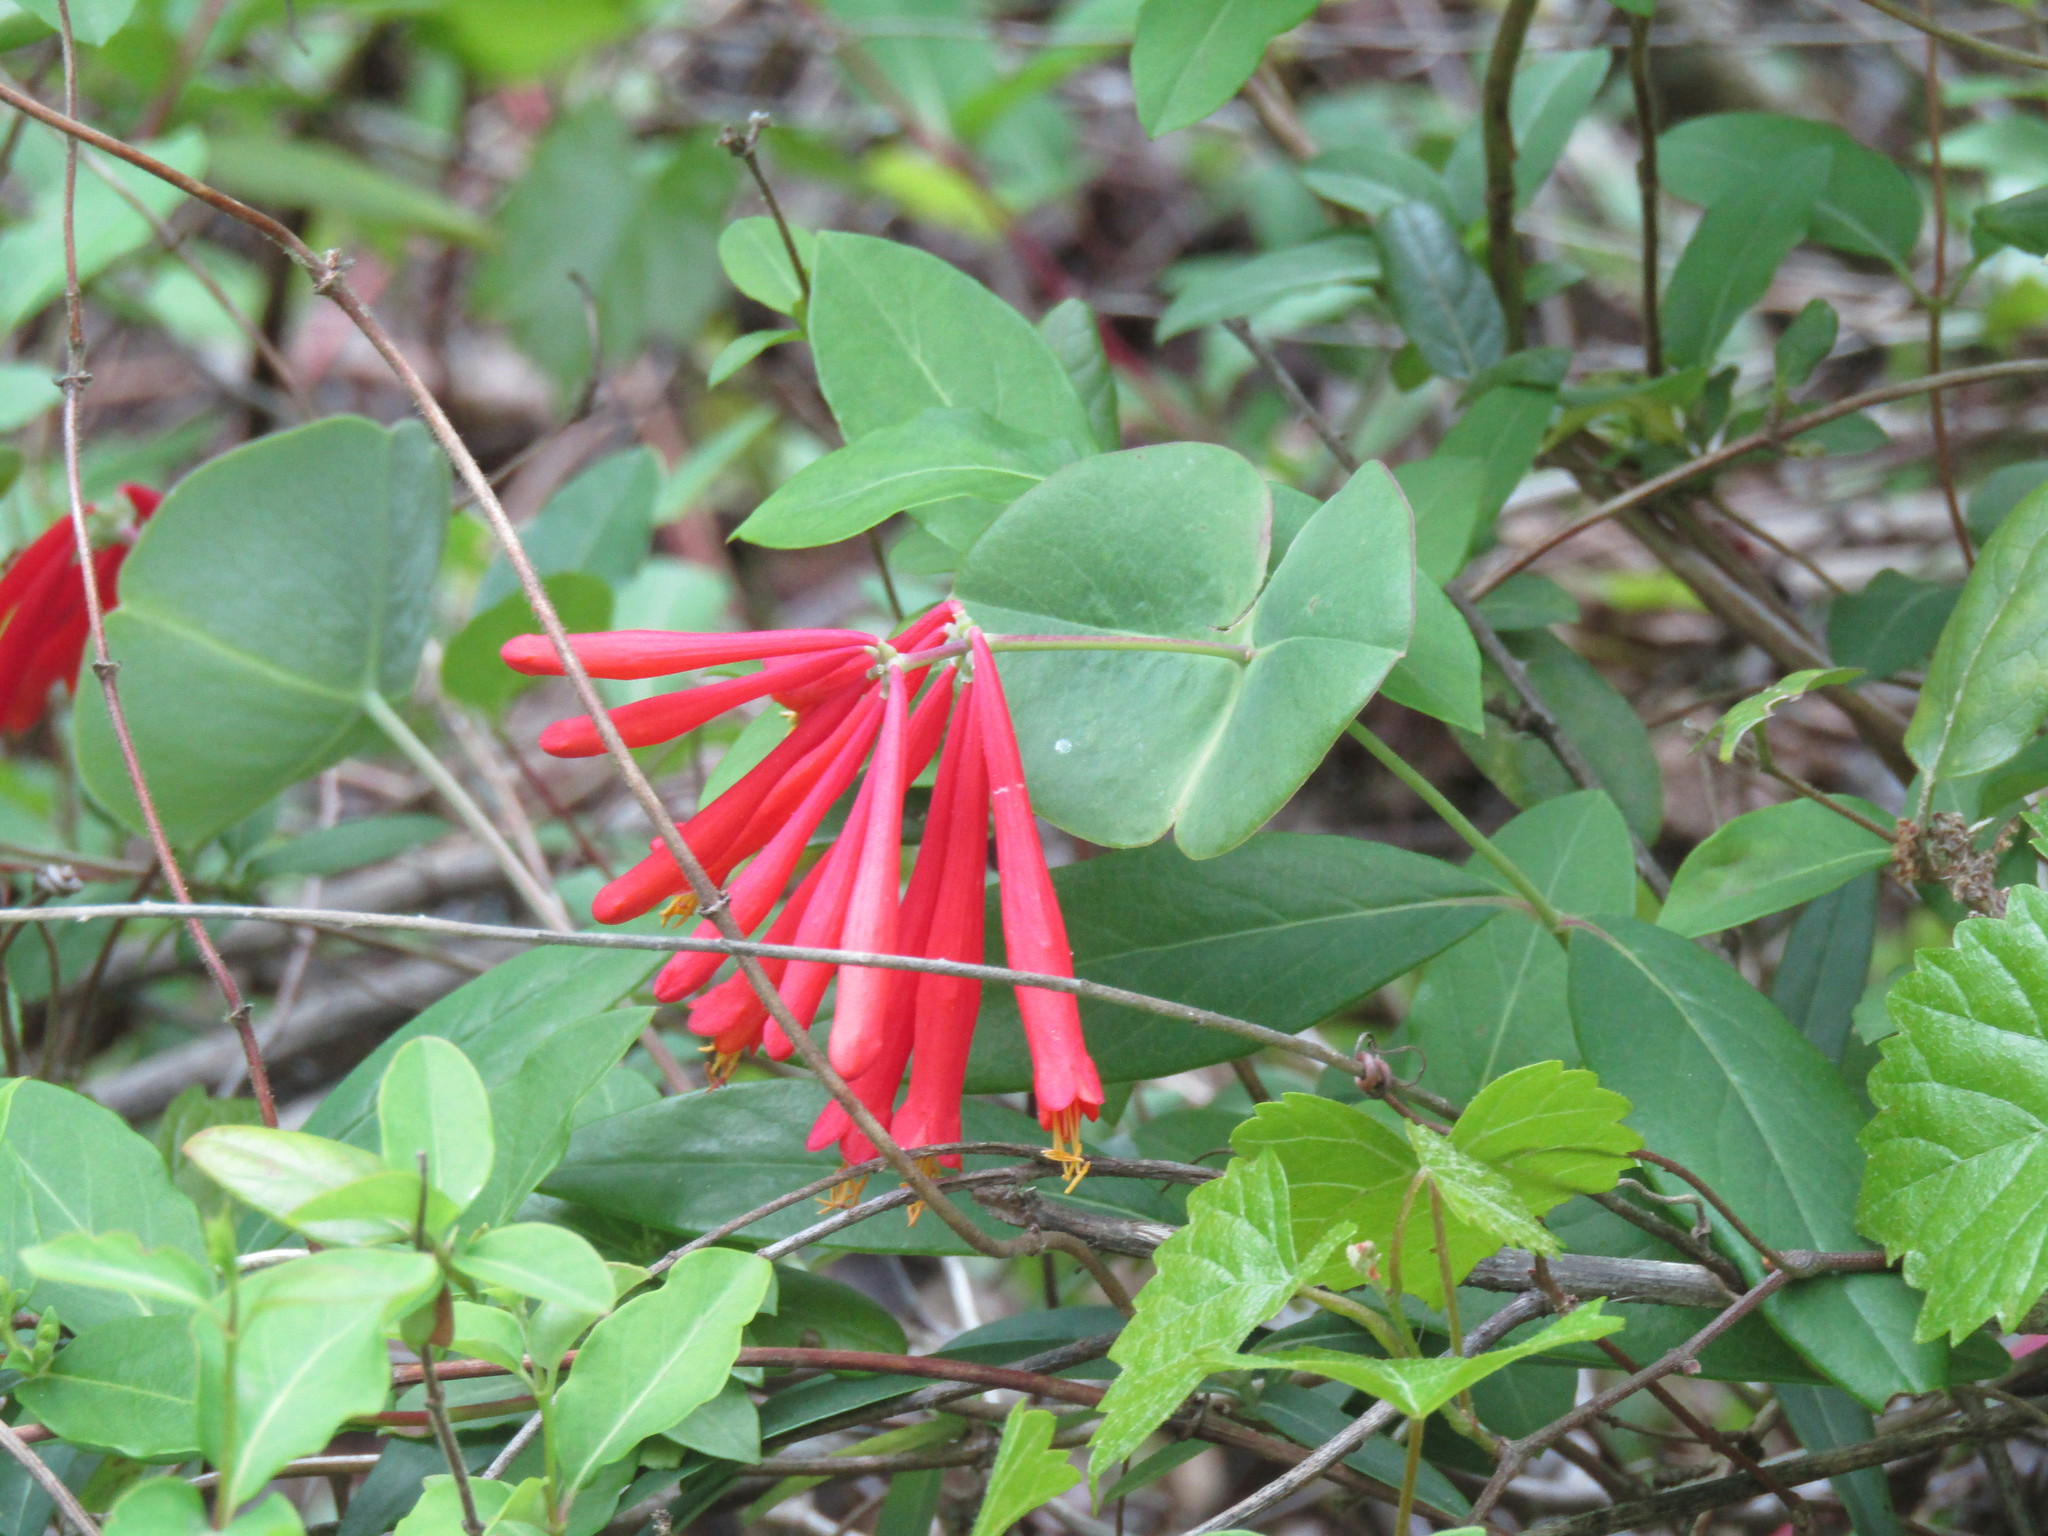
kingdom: Plantae
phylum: Tracheophyta
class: Magnoliopsida
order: Dipsacales
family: Caprifoliaceae
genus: Lonicera
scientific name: Lonicera sempervirens
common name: Coral honeysuckle
